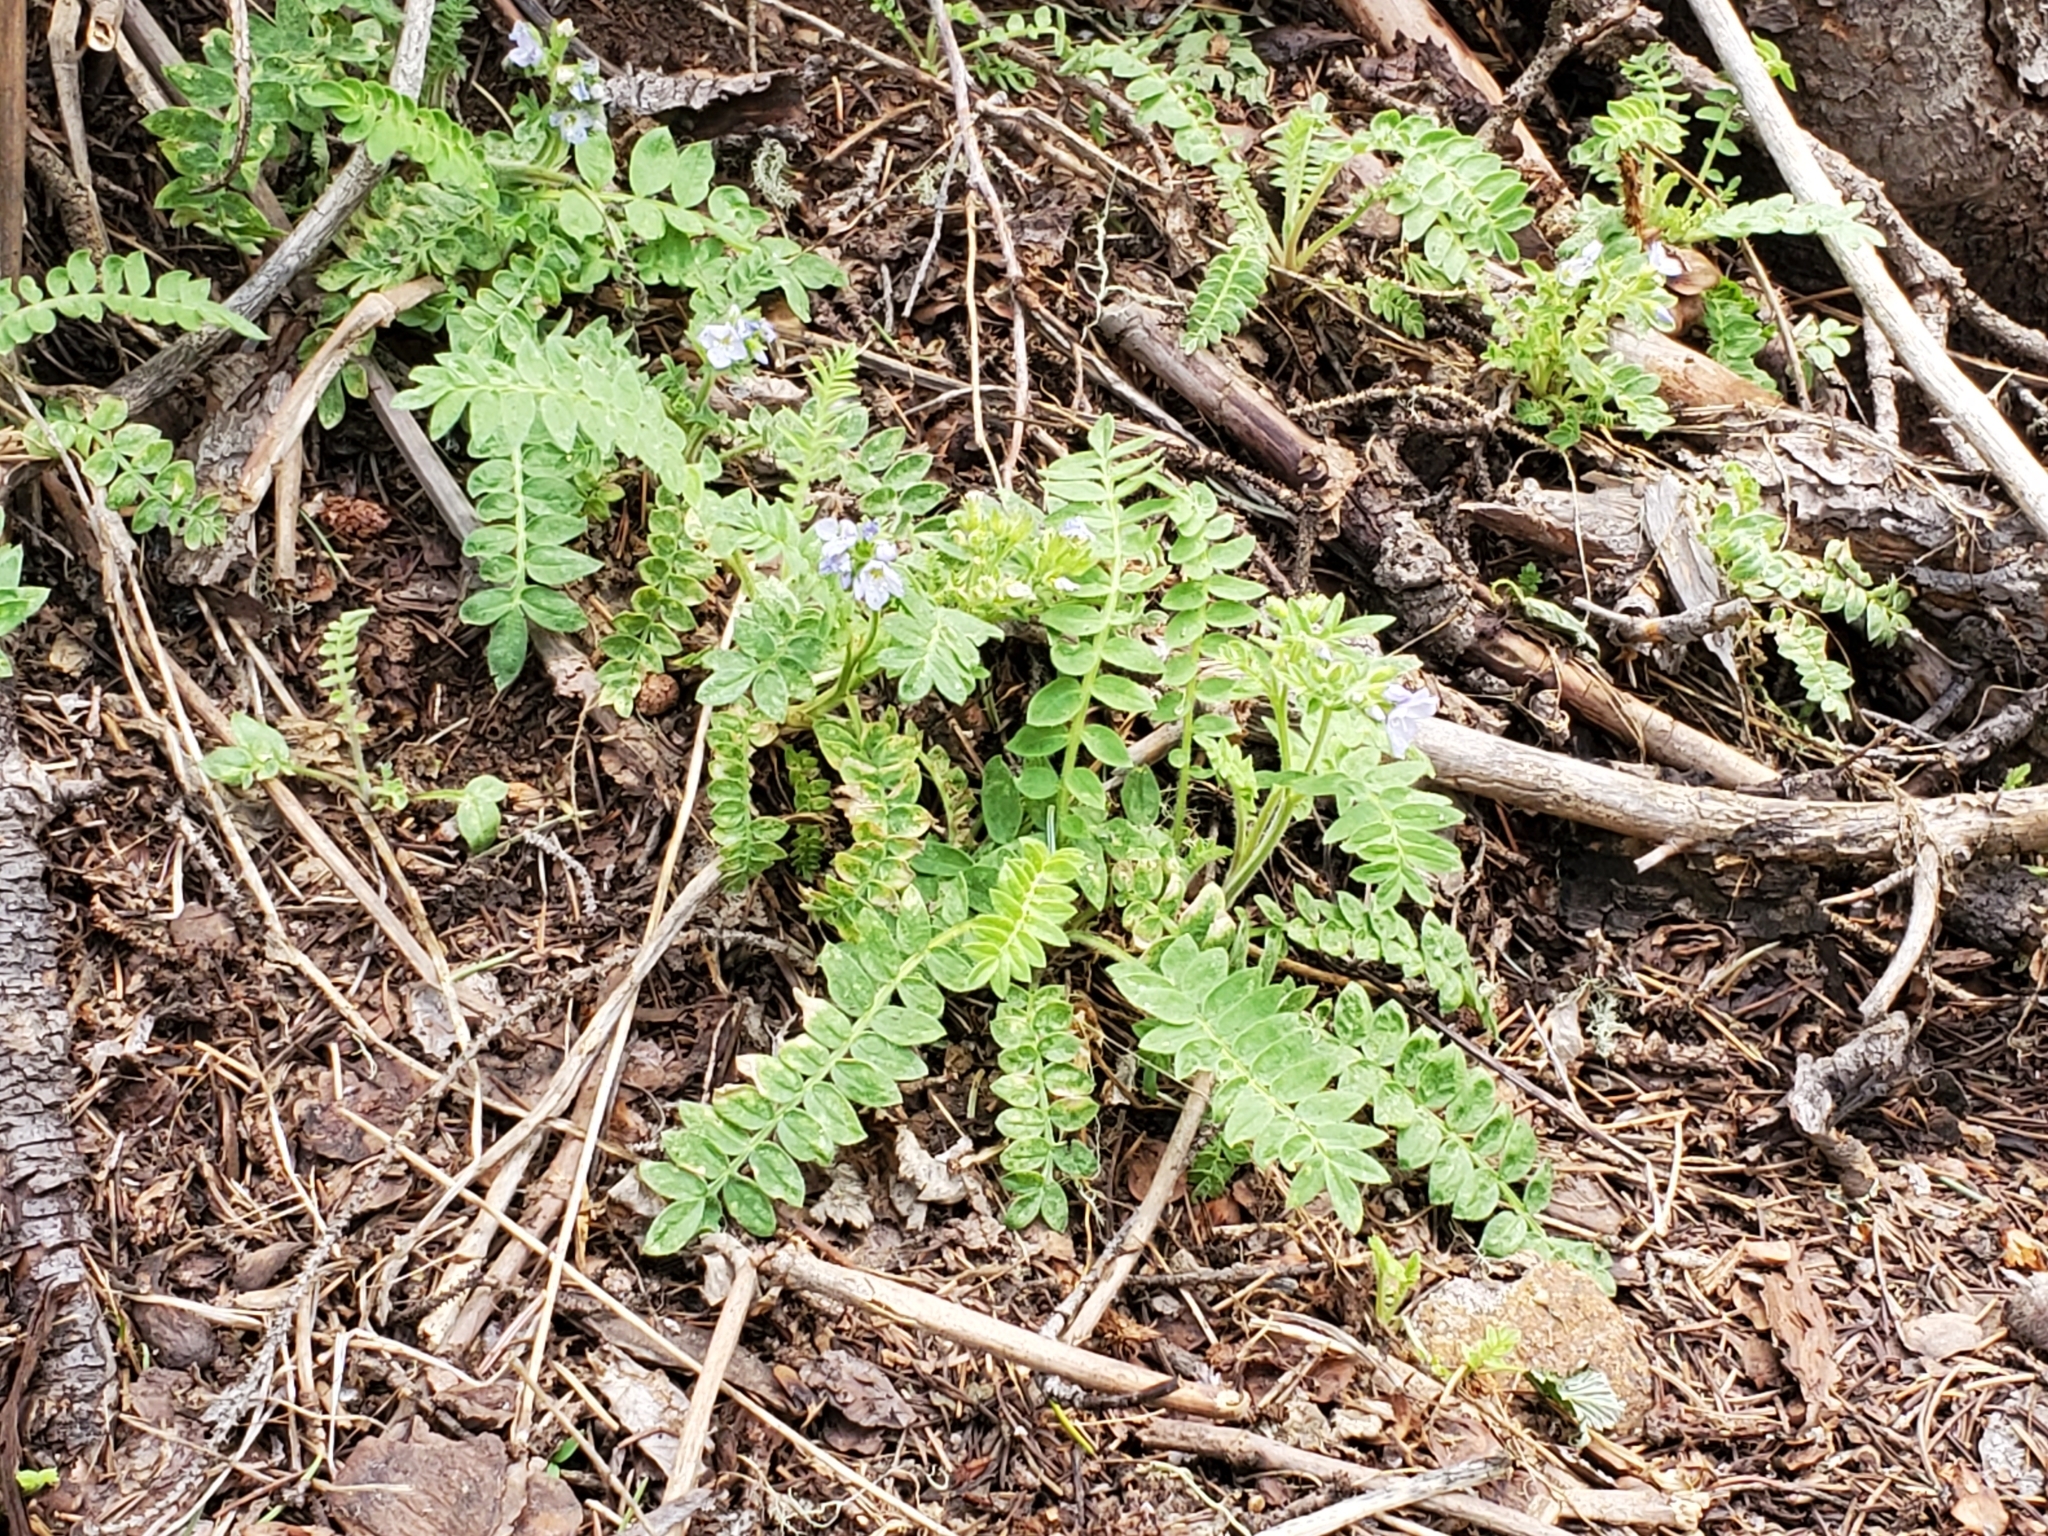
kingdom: Plantae
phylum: Tracheophyta
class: Magnoliopsida
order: Ericales
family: Polemoniaceae
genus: Polemonium
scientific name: Polemonium pulcherrimum
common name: Short jacob's-ladder
